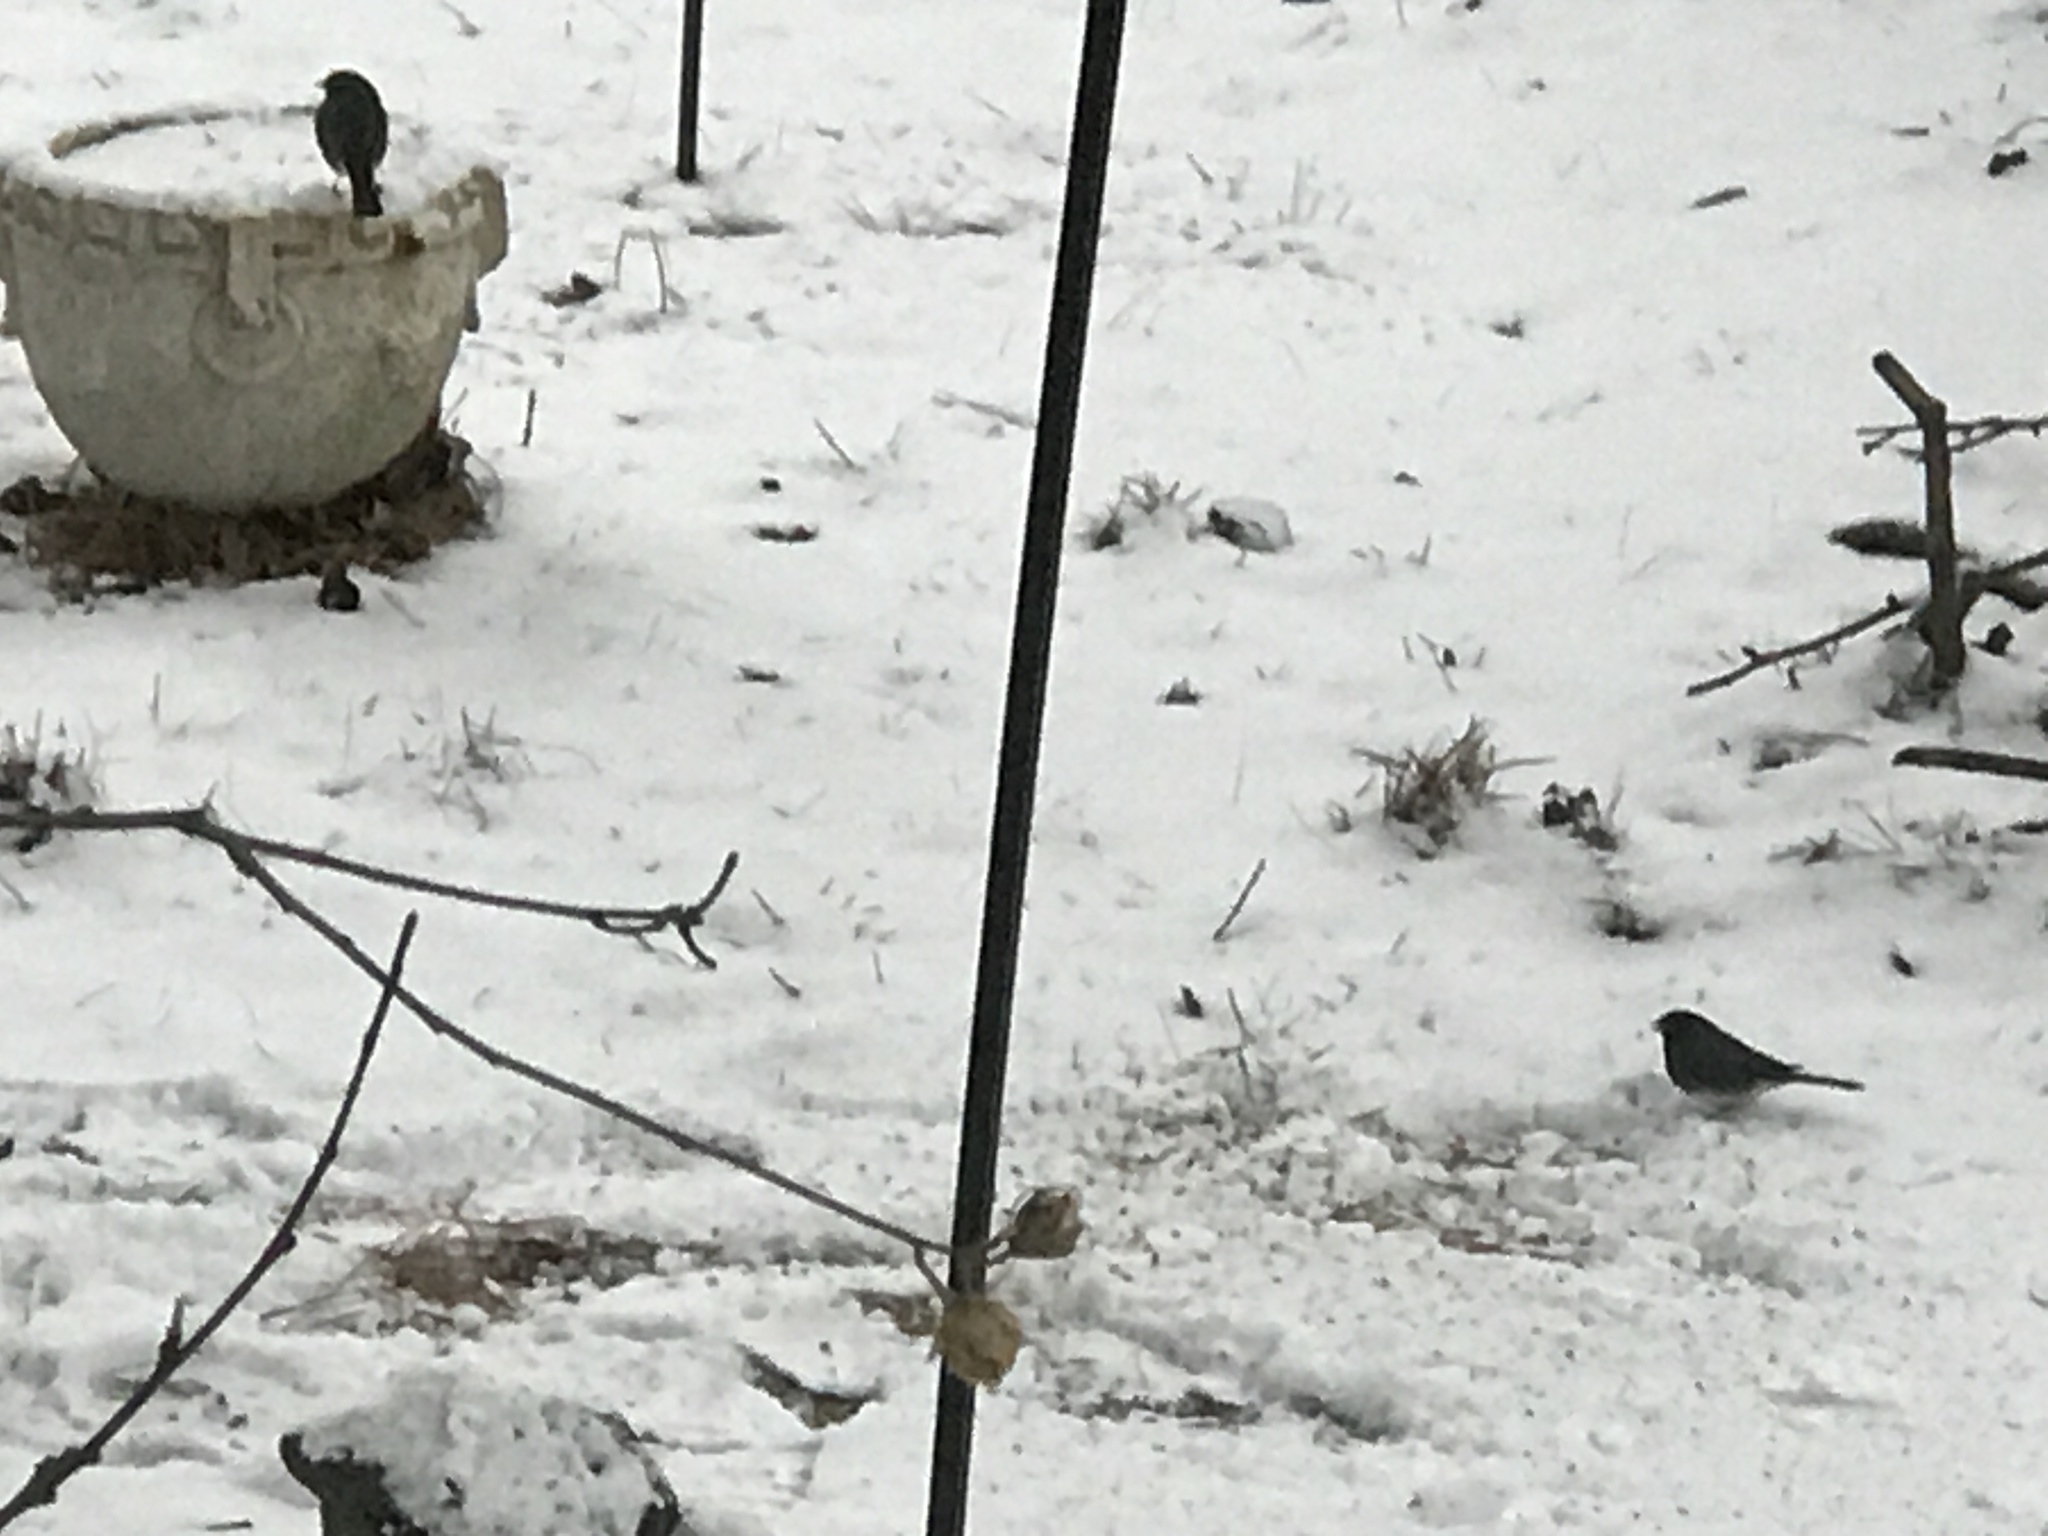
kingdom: Animalia
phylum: Chordata
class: Aves
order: Passeriformes
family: Passerellidae
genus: Junco
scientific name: Junco hyemalis
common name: Dark-eyed junco
